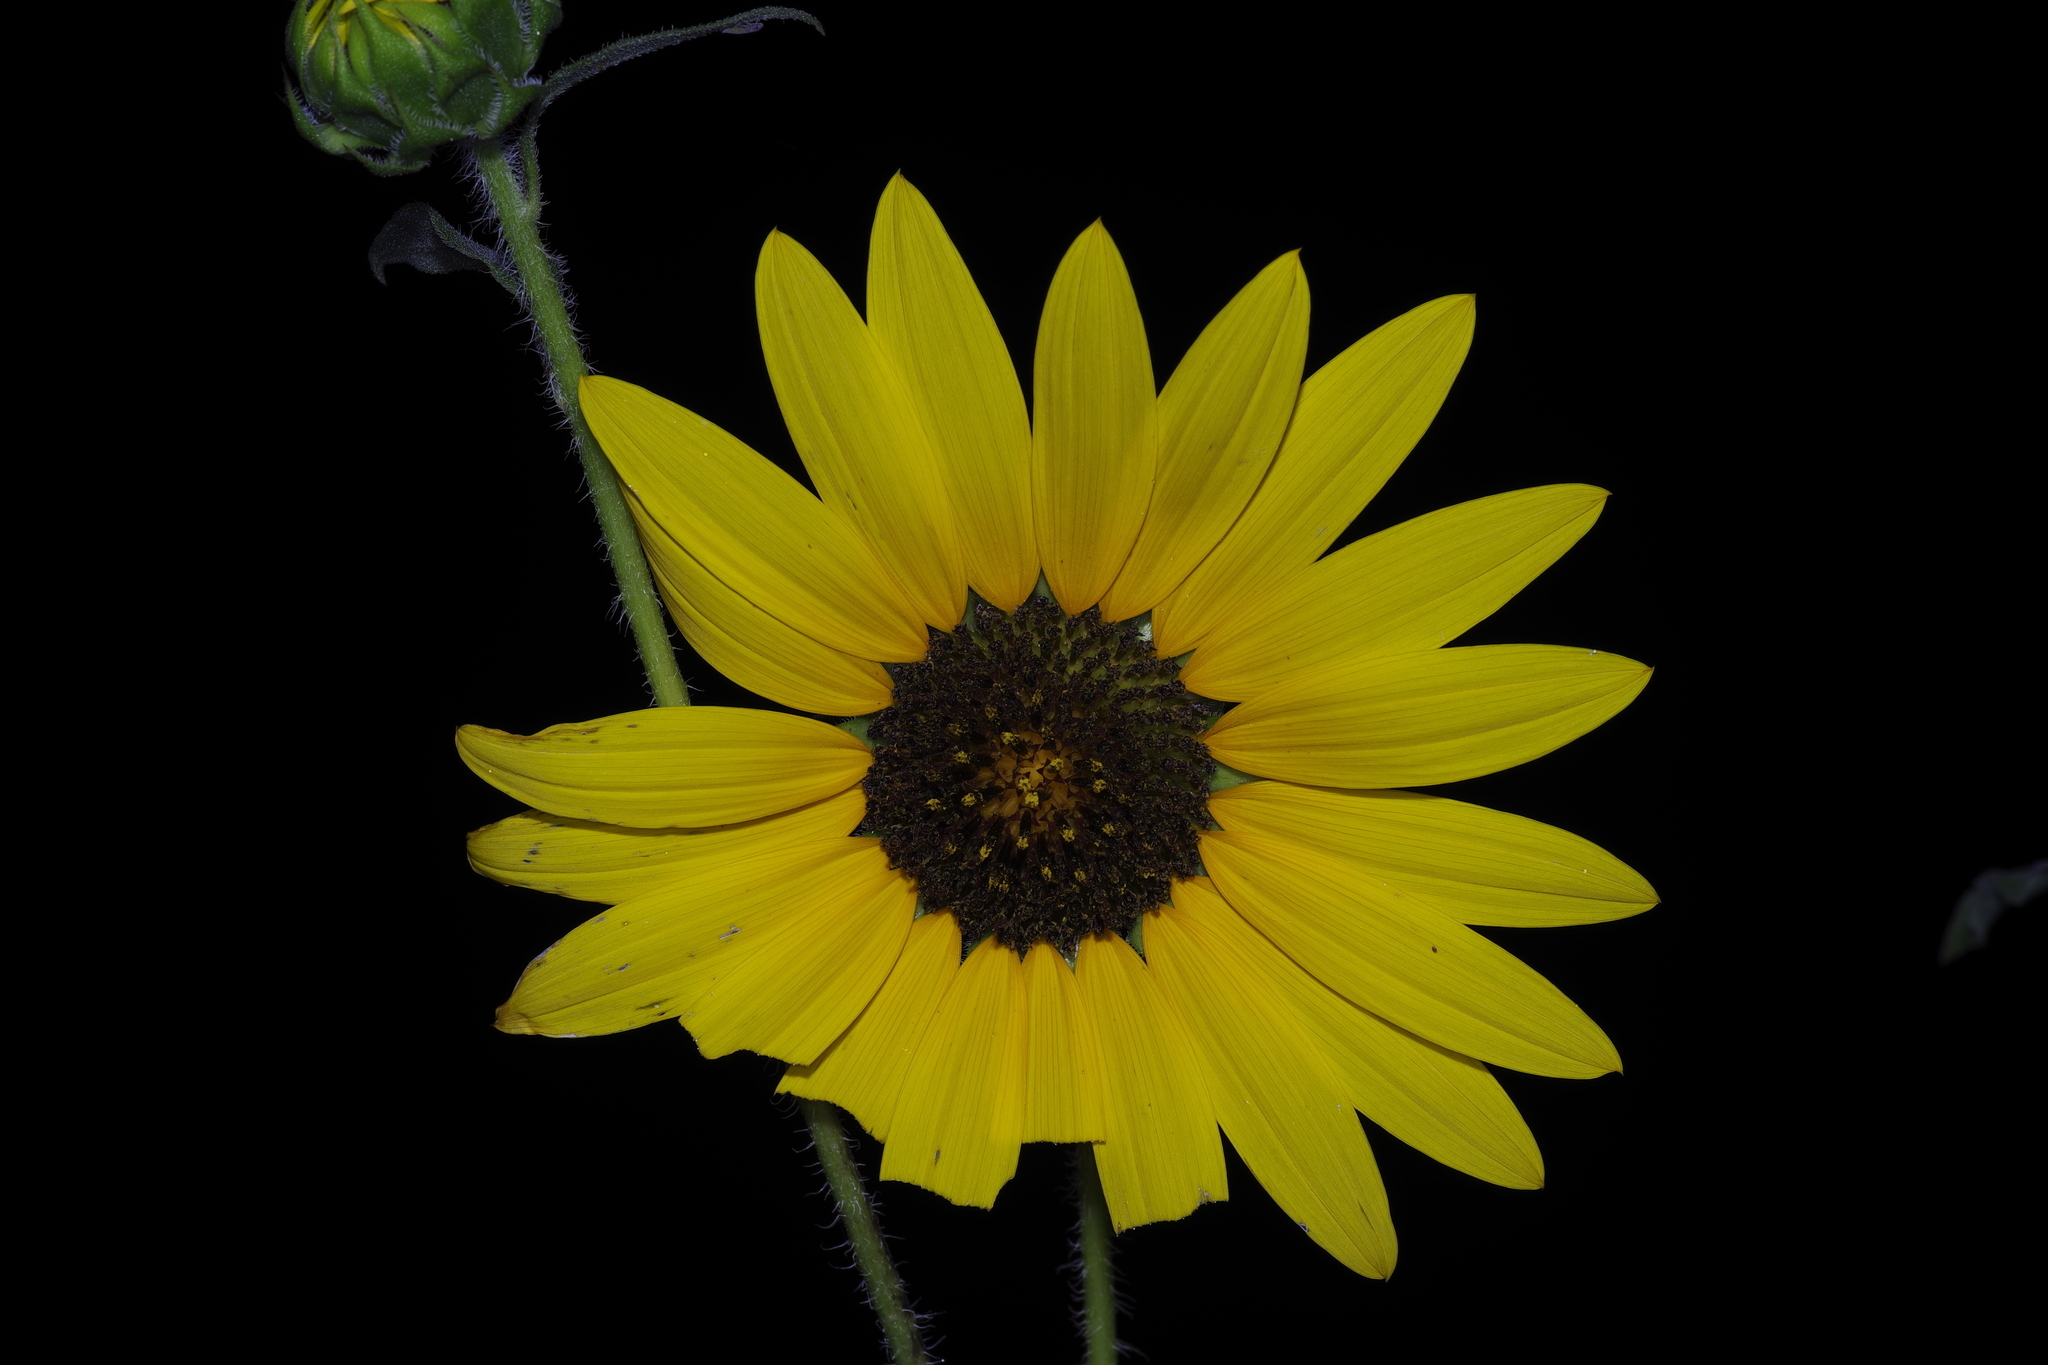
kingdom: Plantae
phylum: Tracheophyta
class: Magnoliopsida
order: Asterales
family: Asteraceae
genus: Helianthus
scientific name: Helianthus annuus
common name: Sunflower
